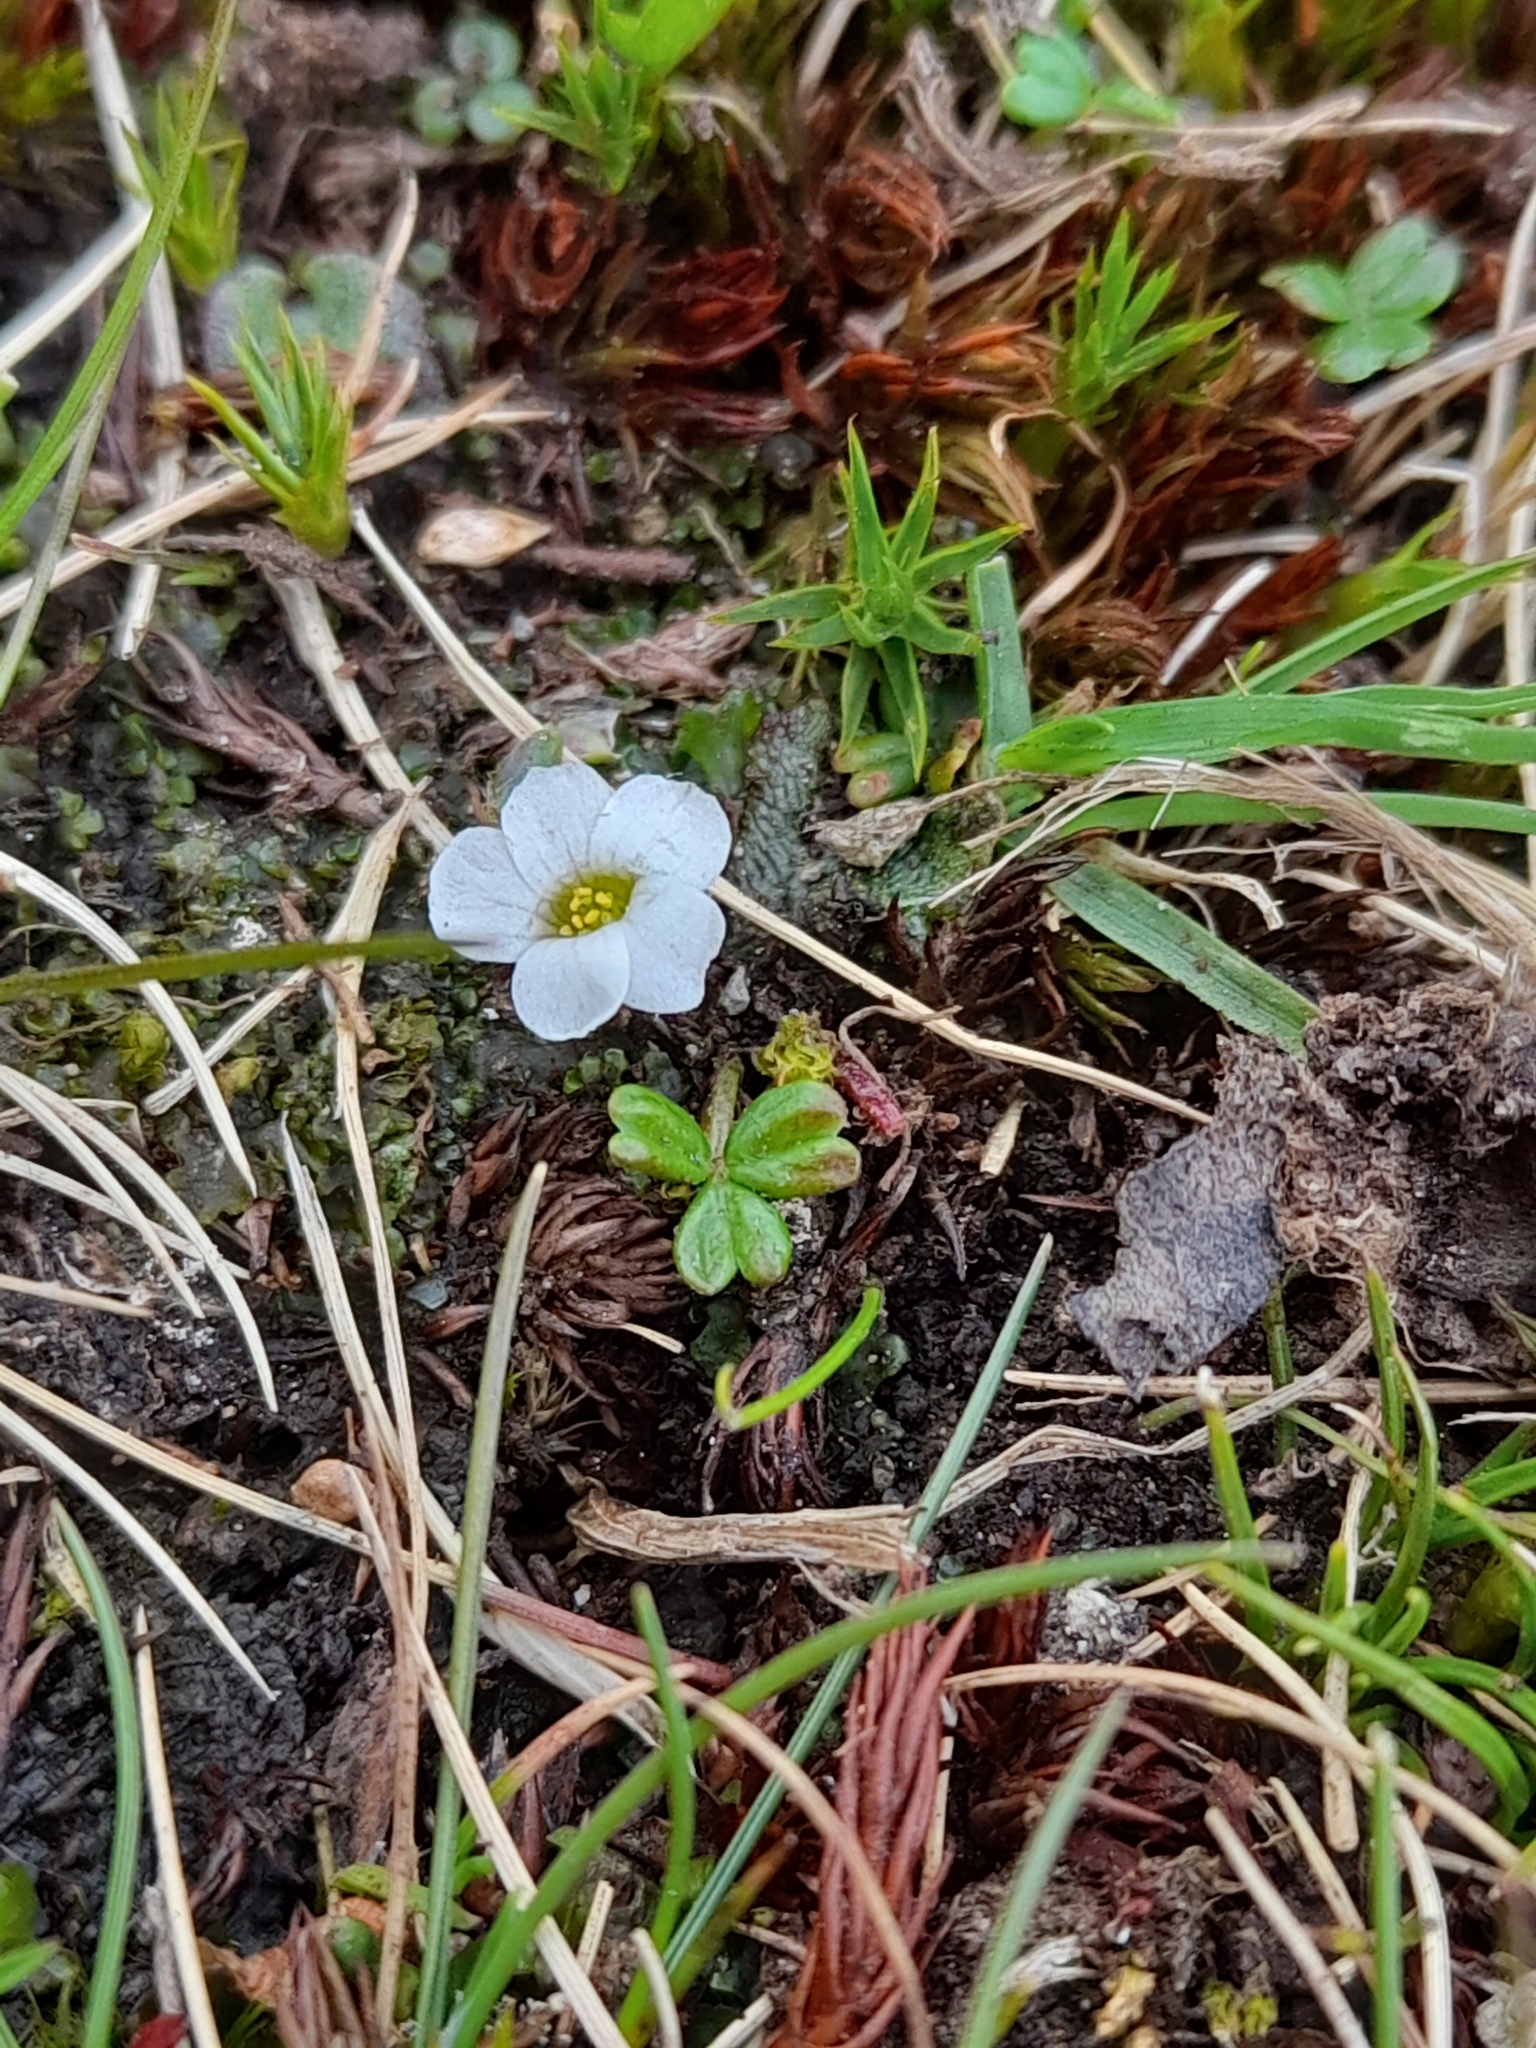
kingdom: Plantae
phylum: Tracheophyta
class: Magnoliopsida
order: Oxalidales
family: Oxalidaceae
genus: Oxalis
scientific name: Oxalis magellanica
